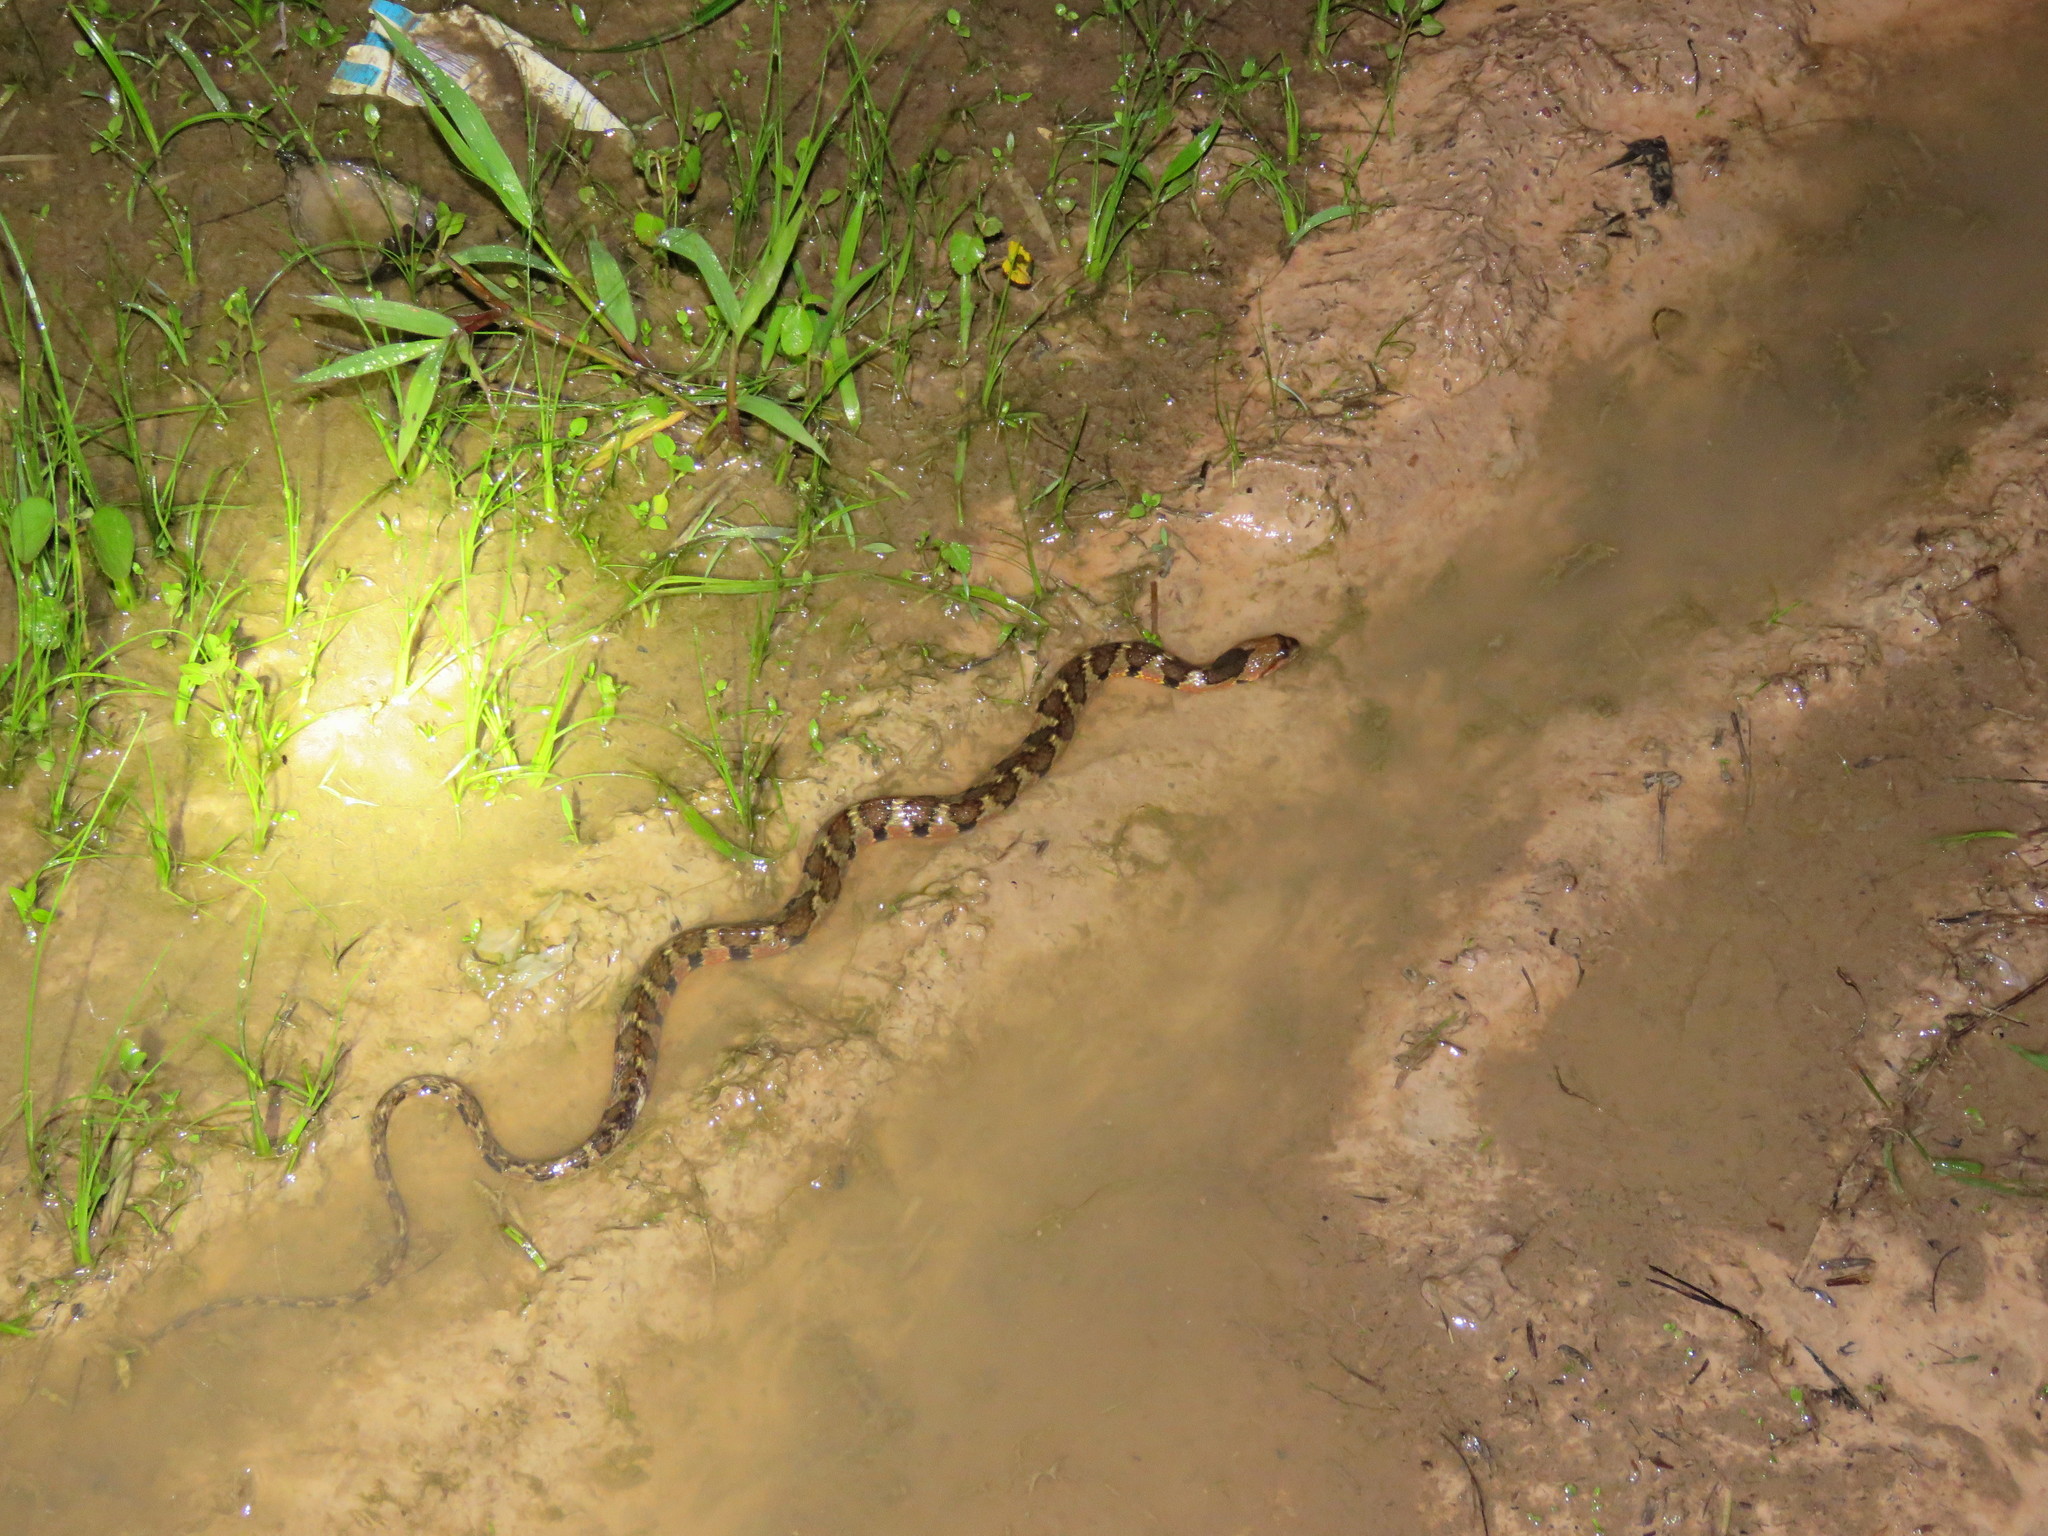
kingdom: Animalia
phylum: Chordata
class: Squamata
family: Colubridae
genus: Helicops
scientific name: Helicops angulatus
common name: Mountain keelback
